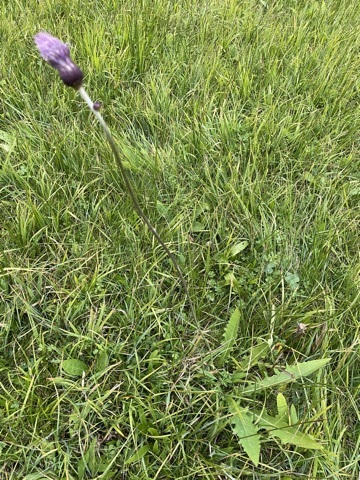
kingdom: Plantae
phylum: Tracheophyta
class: Magnoliopsida
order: Asterales
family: Asteraceae
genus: Cirsium
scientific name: Cirsium rivulare
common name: Brook thistle
